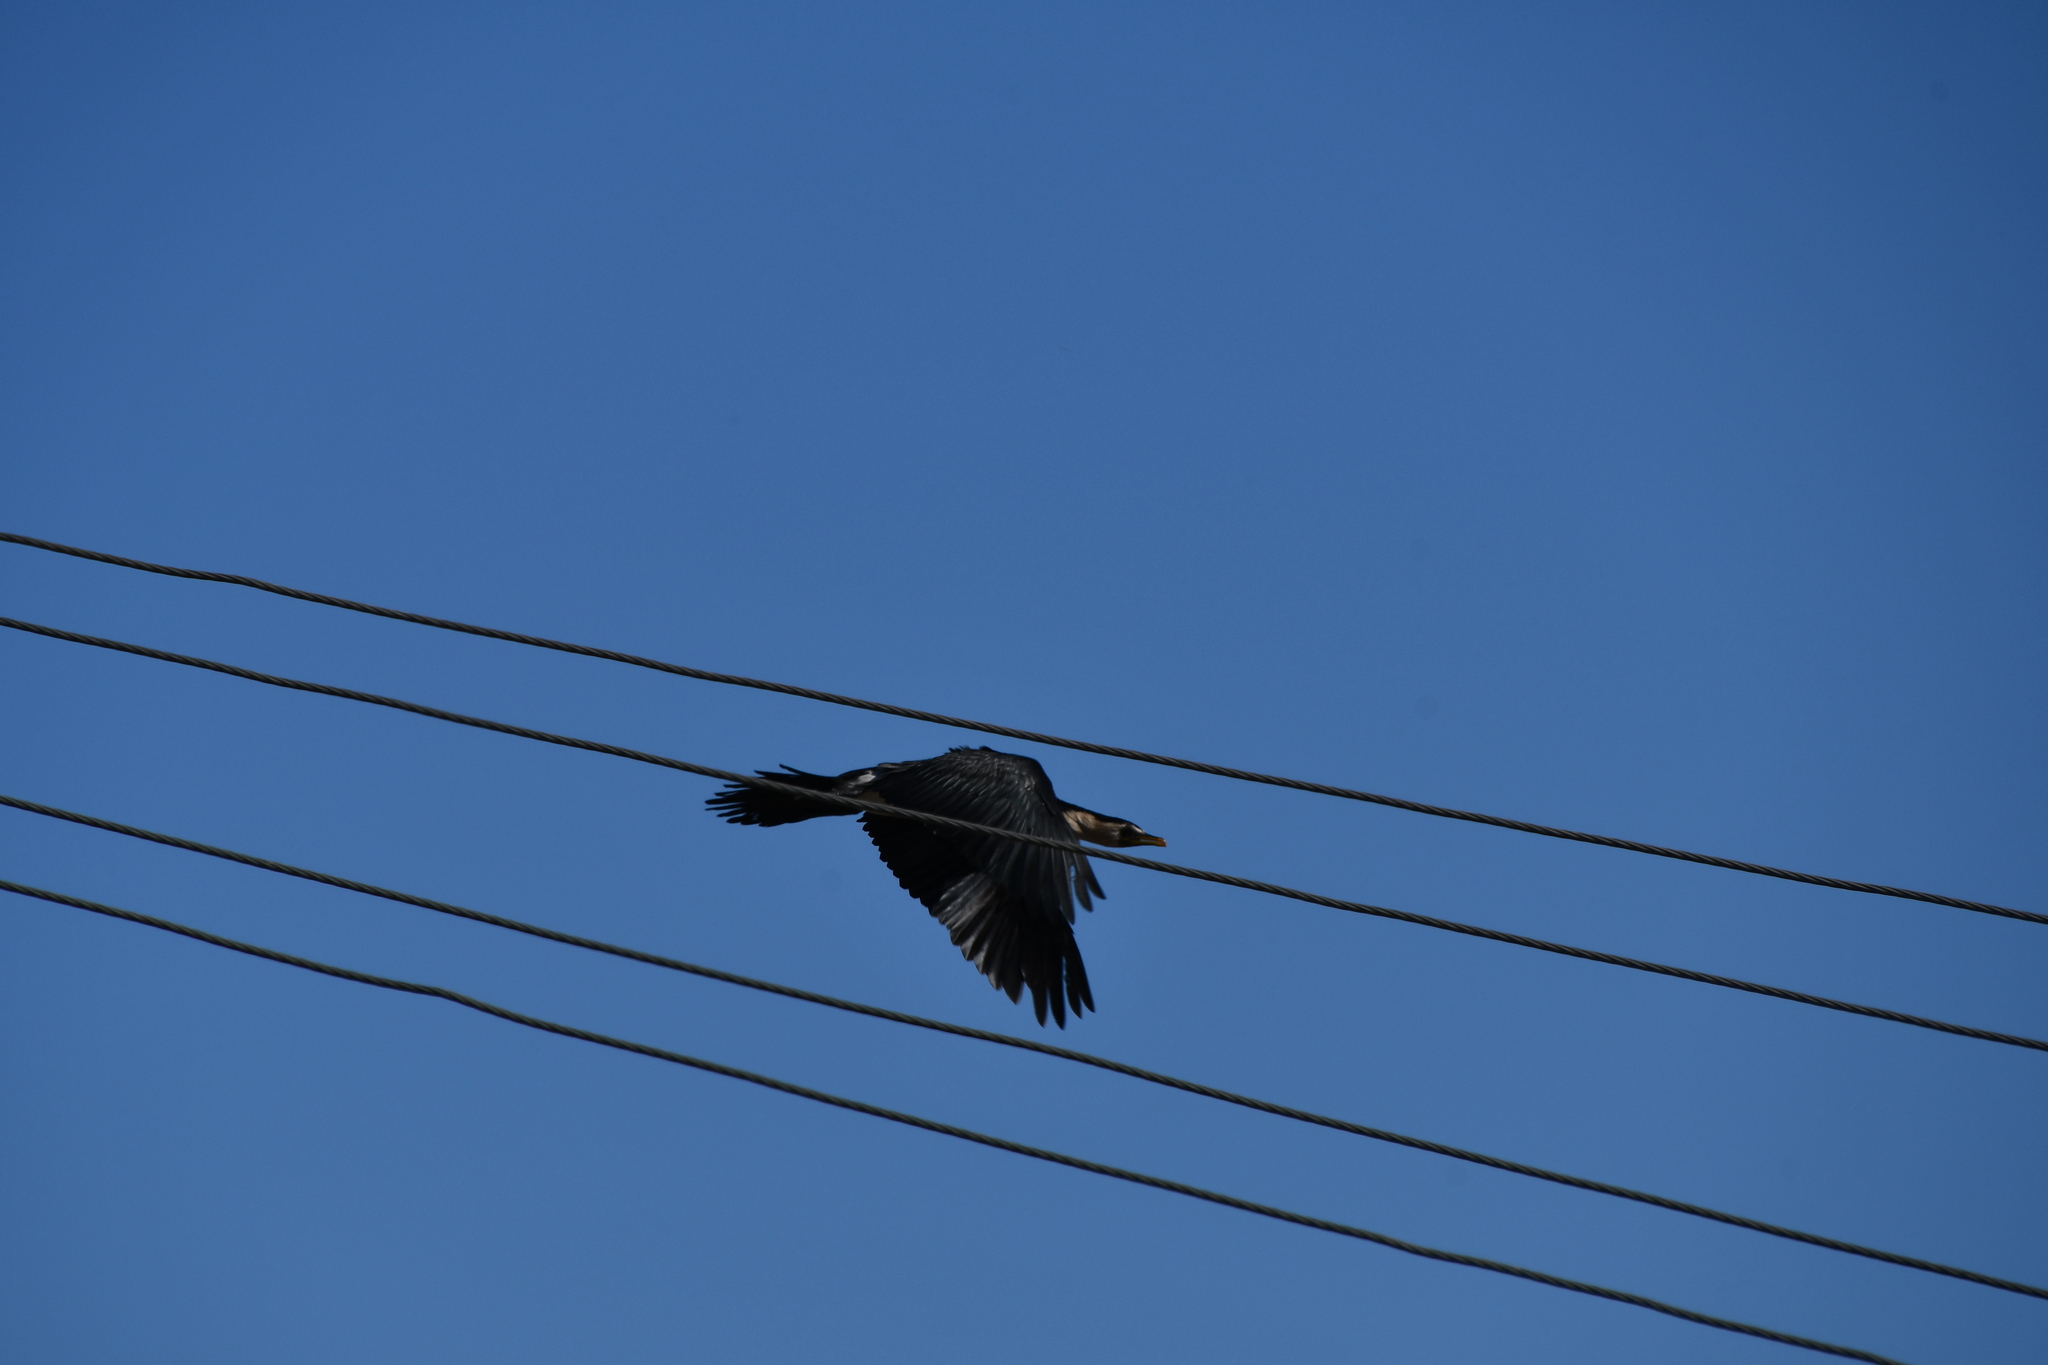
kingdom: Animalia
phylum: Chordata
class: Aves
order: Suliformes
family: Phalacrocoracidae
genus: Microcarbo
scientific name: Microcarbo melanoleucos
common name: Little pied cormorant
